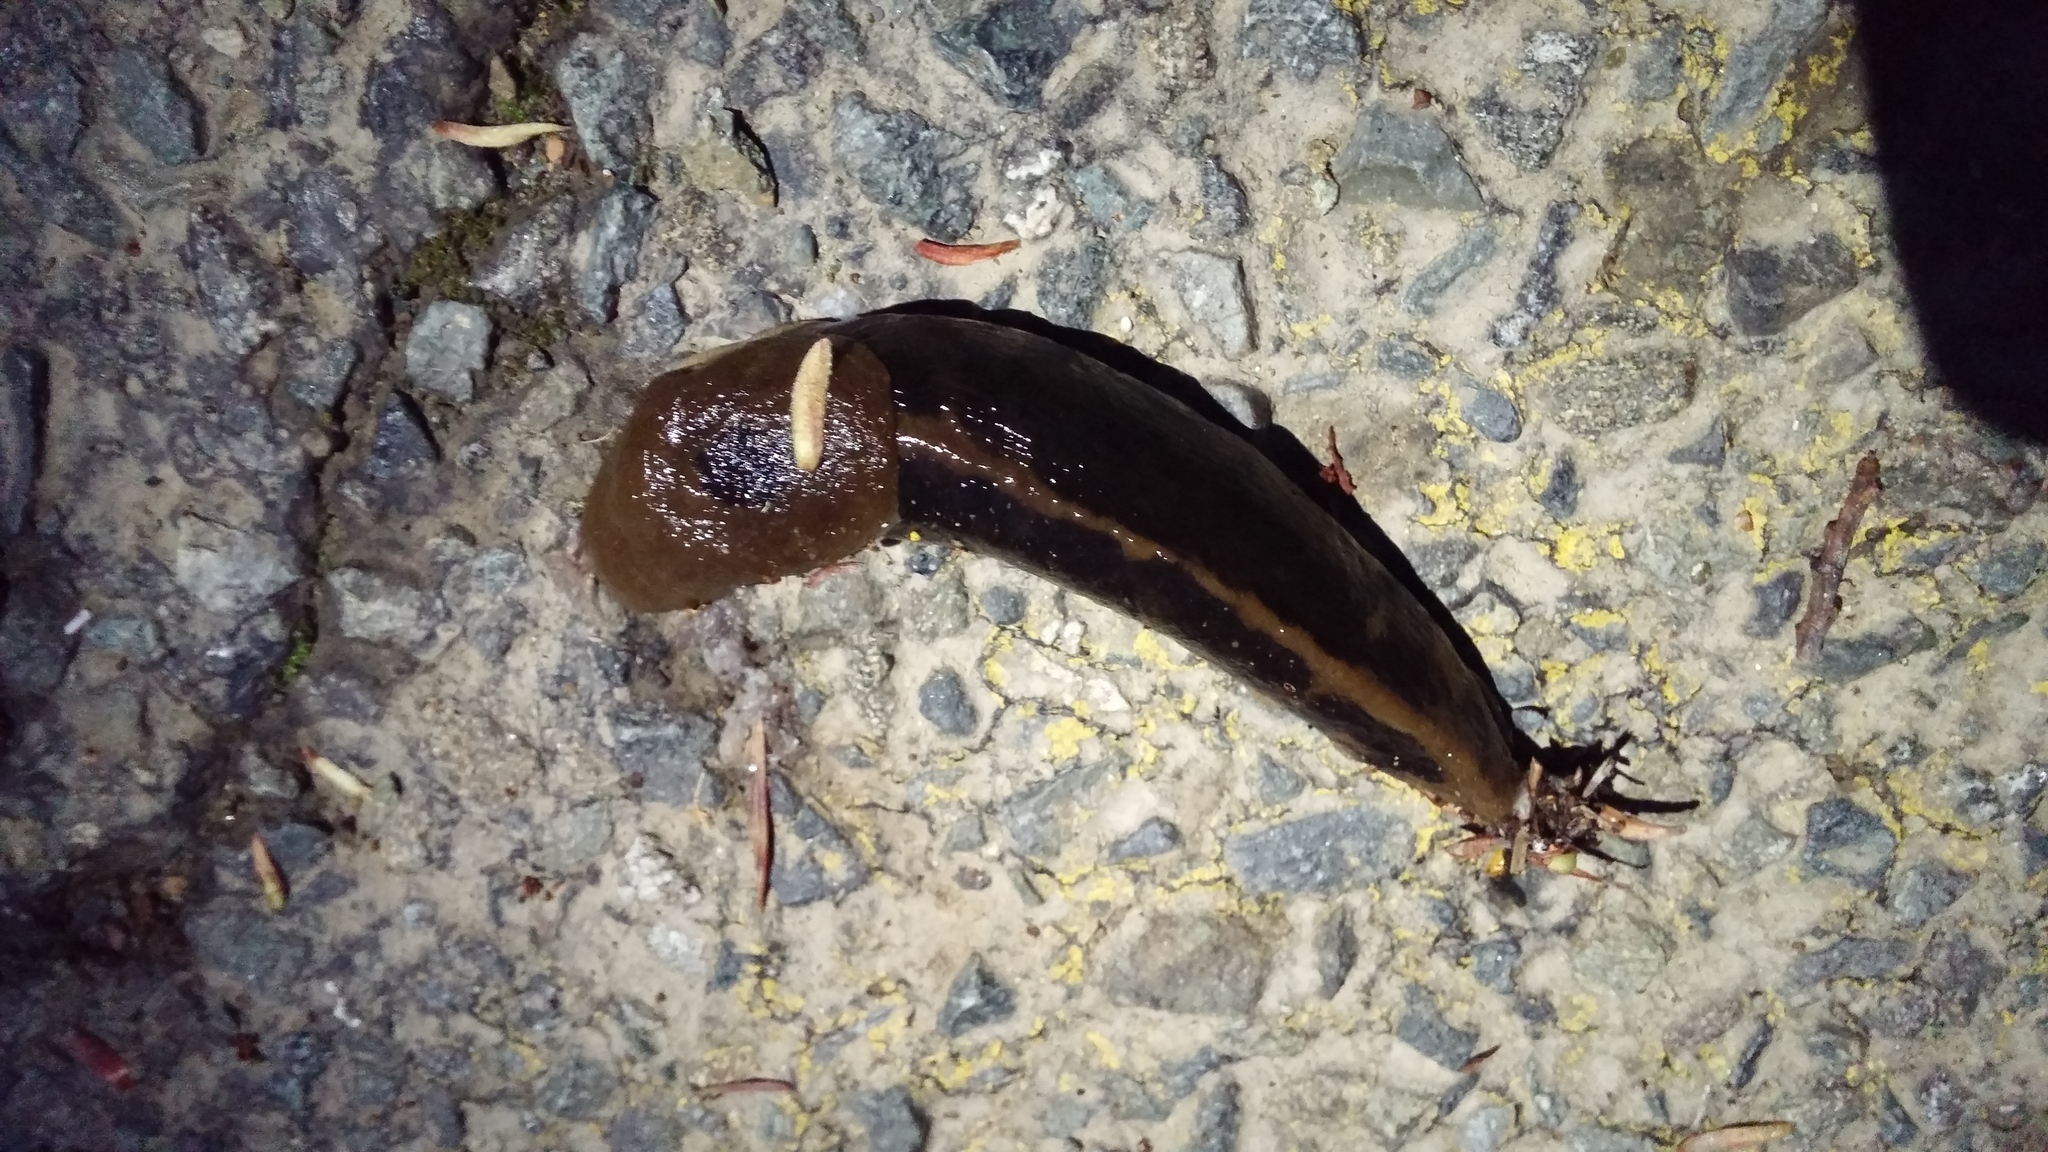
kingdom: Animalia
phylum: Mollusca
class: Gastropoda
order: Stylommatophora
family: Ariolimacidae
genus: Ariolimax
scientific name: Ariolimax columbianus
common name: Pacific banana slug
